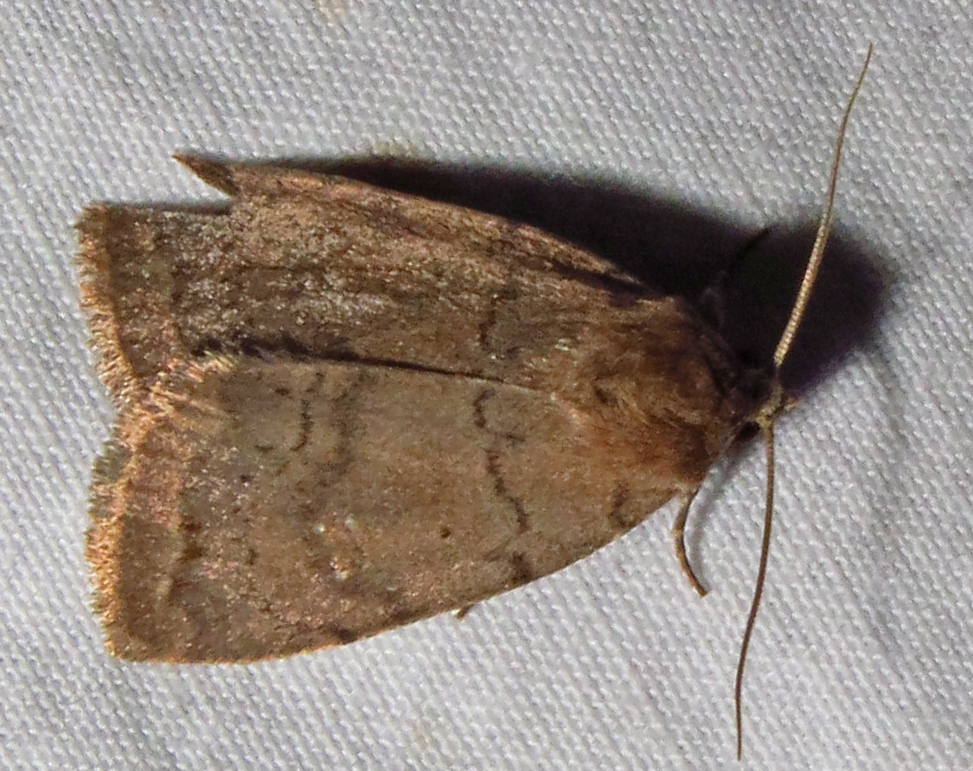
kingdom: Animalia
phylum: Arthropoda
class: Insecta
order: Lepidoptera
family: Noctuidae
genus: Athetis
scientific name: Athetis tarda
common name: Slowpoke moth
